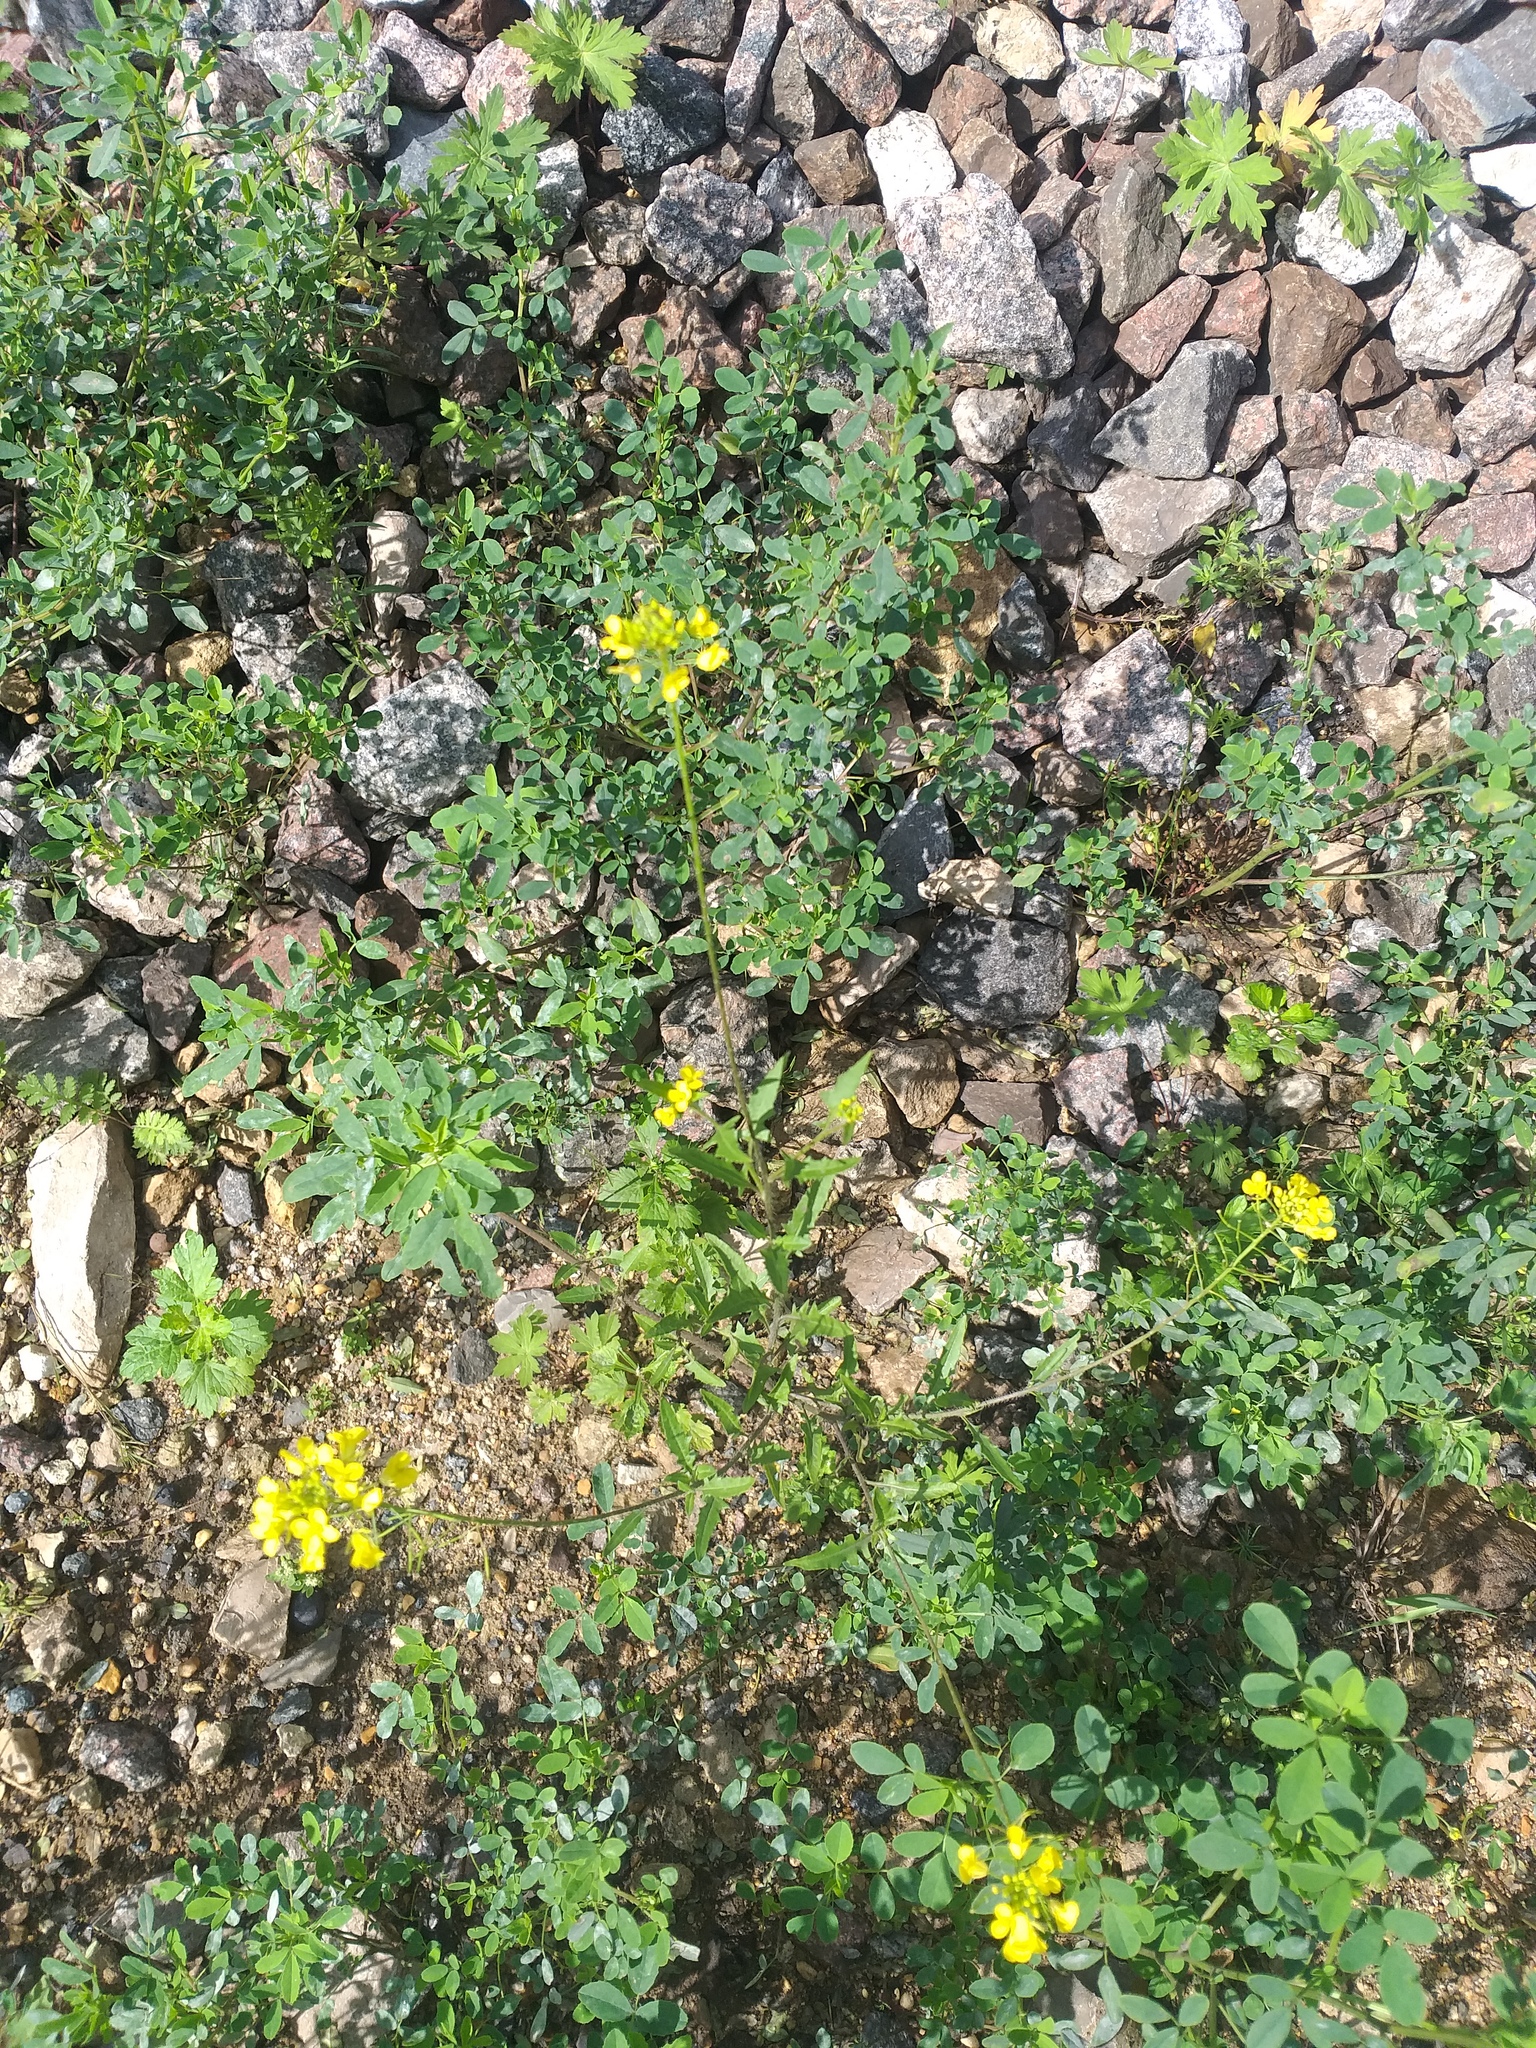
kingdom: Plantae
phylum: Tracheophyta
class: Magnoliopsida
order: Brassicales
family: Brassicaceae
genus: Sisymbrium
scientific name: Sisymbrium loeselii
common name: False london-rocket
